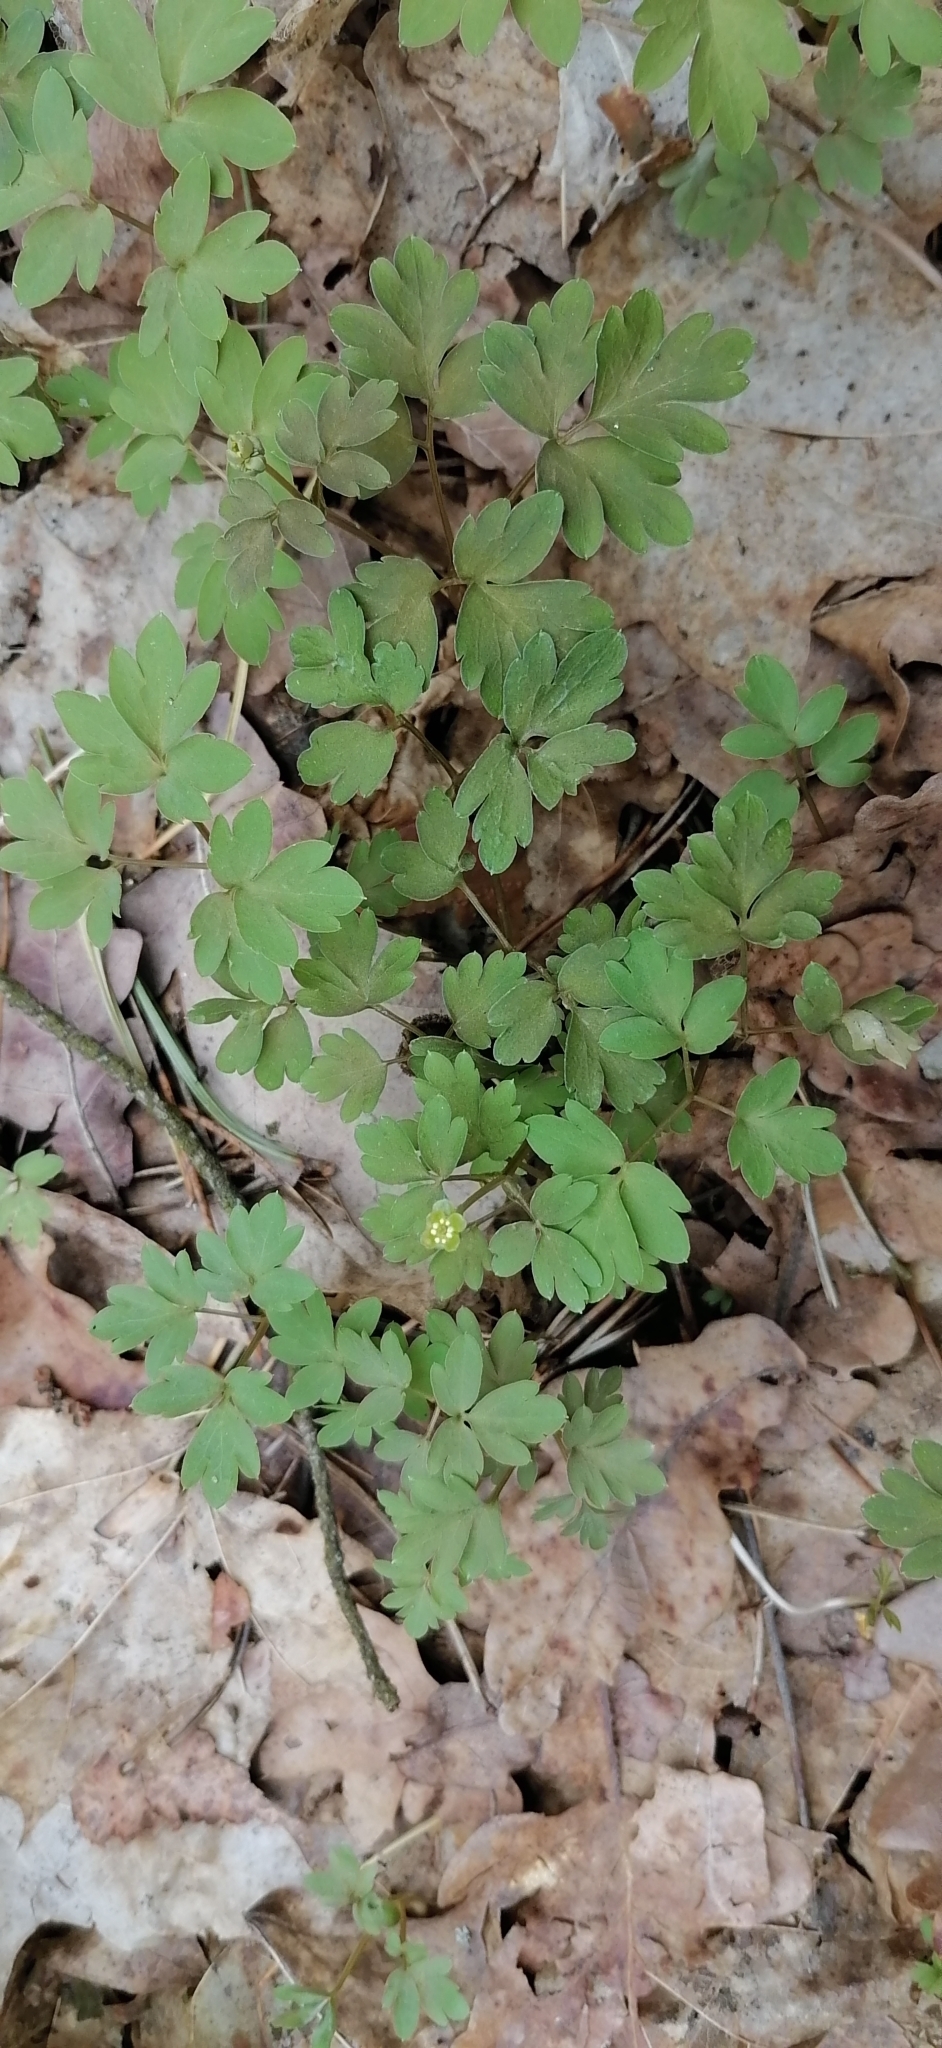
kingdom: Plantae
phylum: Tracheophyta
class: Magnoliopsida
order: Dipsacales
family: Viburnaceae
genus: Adoxa
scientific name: Adoxa moschatellina
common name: Moschatel
